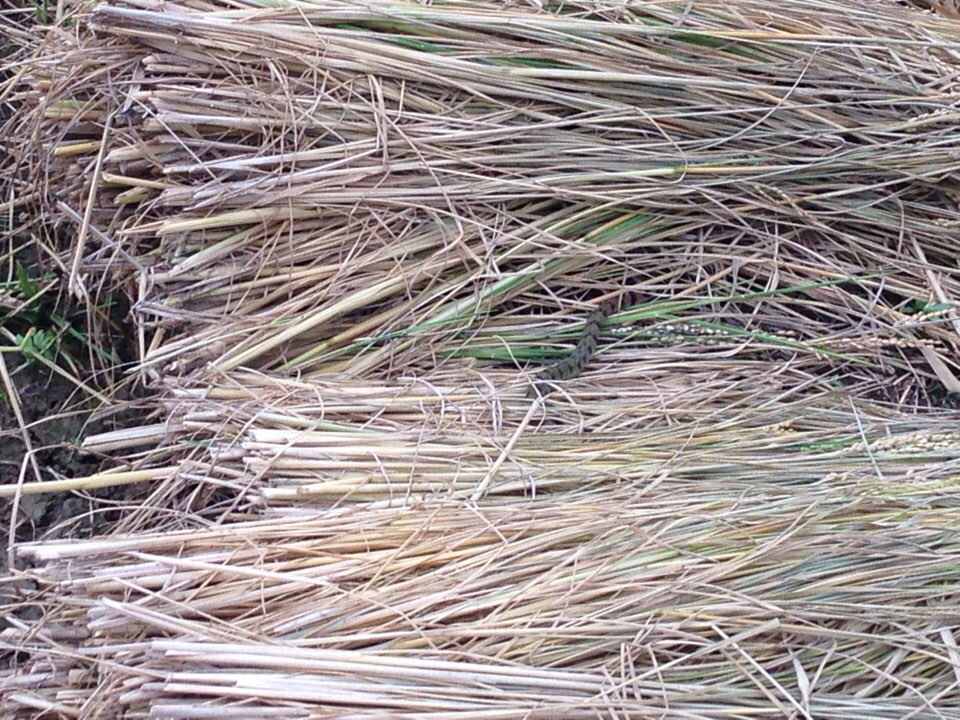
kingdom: Animalia
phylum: Chordata
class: Squamata
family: Colubridae
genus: Rhabdophis
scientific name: Rhabdophis tigrinus
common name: Tiger keelback
